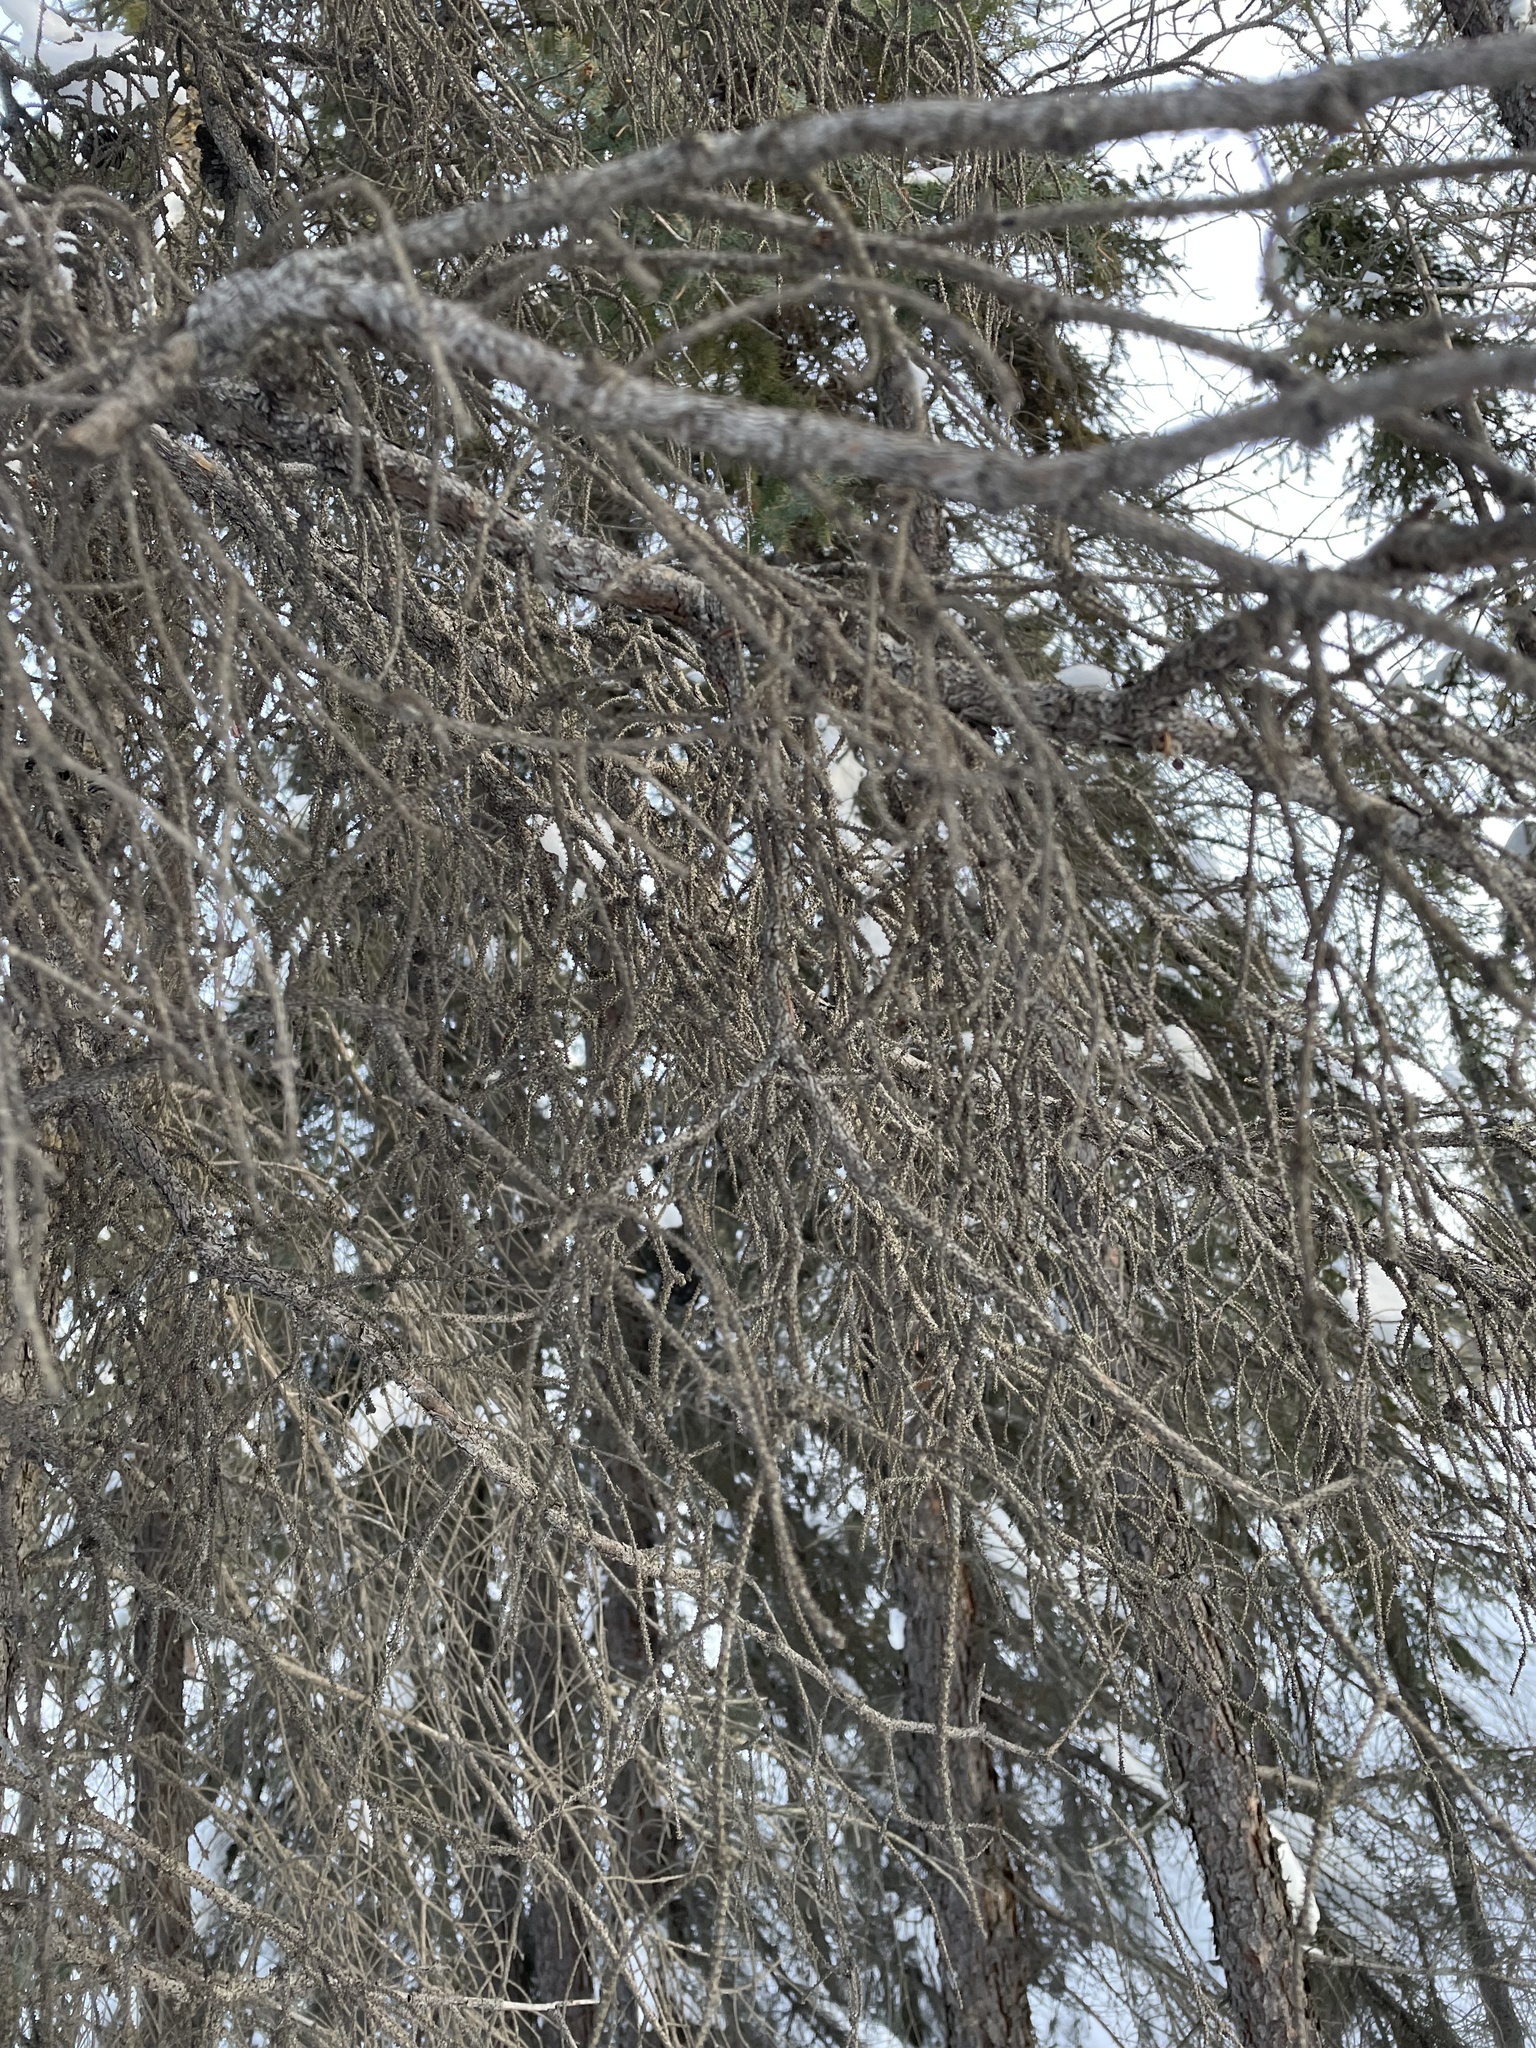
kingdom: Plantae
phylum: Tracheophyta
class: Pinopsida
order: Pinales
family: Pinaceae
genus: Picea
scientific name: Picea mariana
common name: Black spruce
